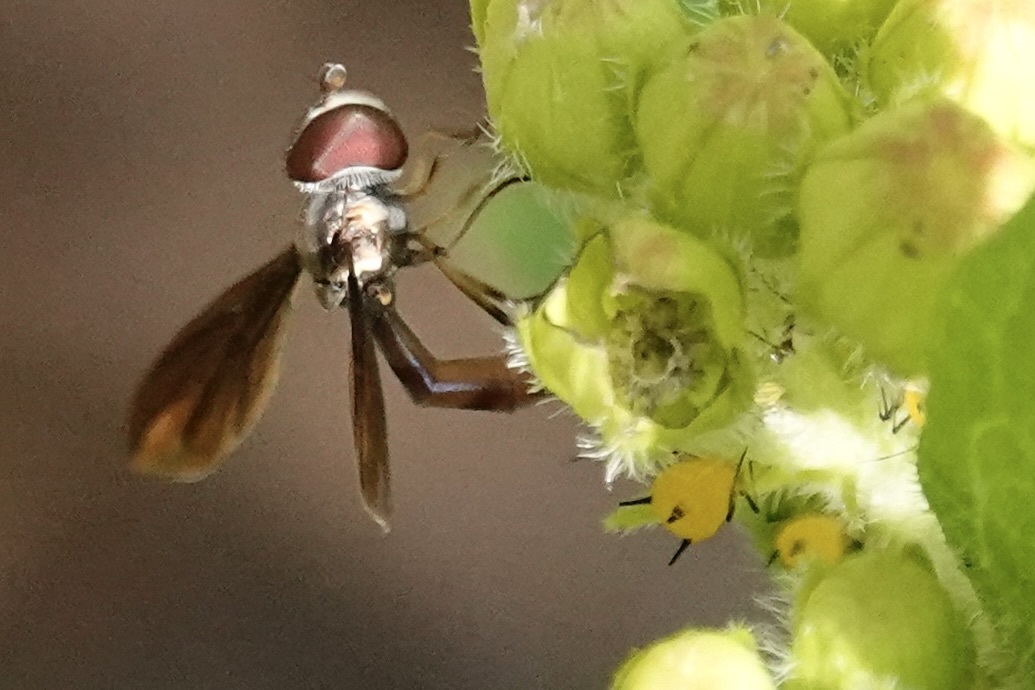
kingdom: Animalia
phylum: Arthropoda
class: Insecta
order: Diptera
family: Syrphidae
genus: Ocyptamus
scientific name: Ocyptamus fuscipennis
